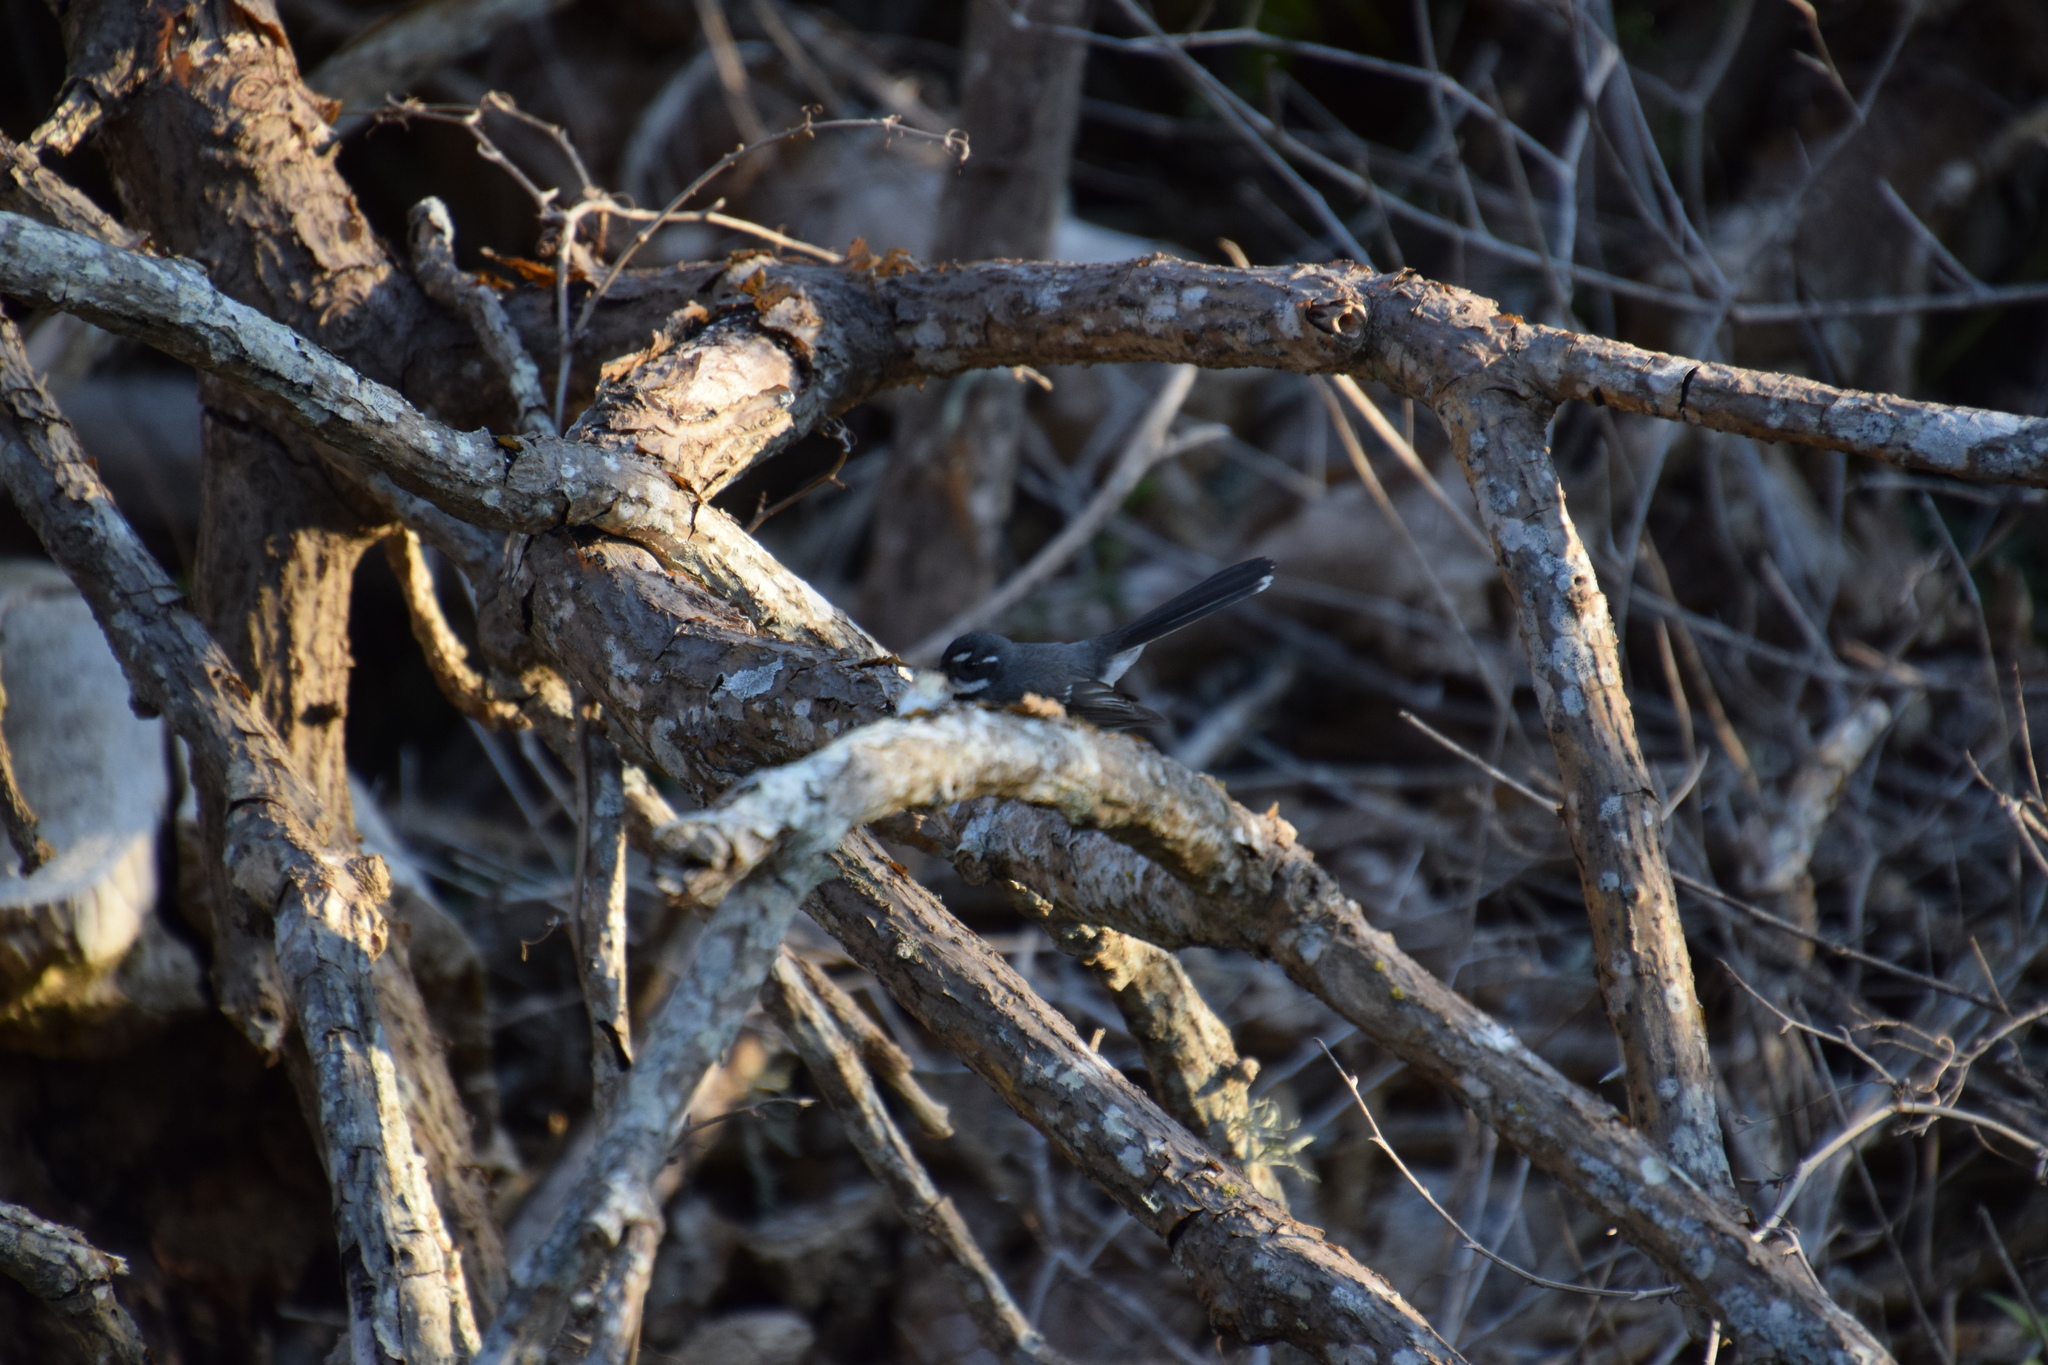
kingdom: Animalia
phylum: Chordata
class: Aves
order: Passeriformes
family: Rhipiduridae
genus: Rhipidura
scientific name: Rhipidura albiscapa
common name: Grey fantail
